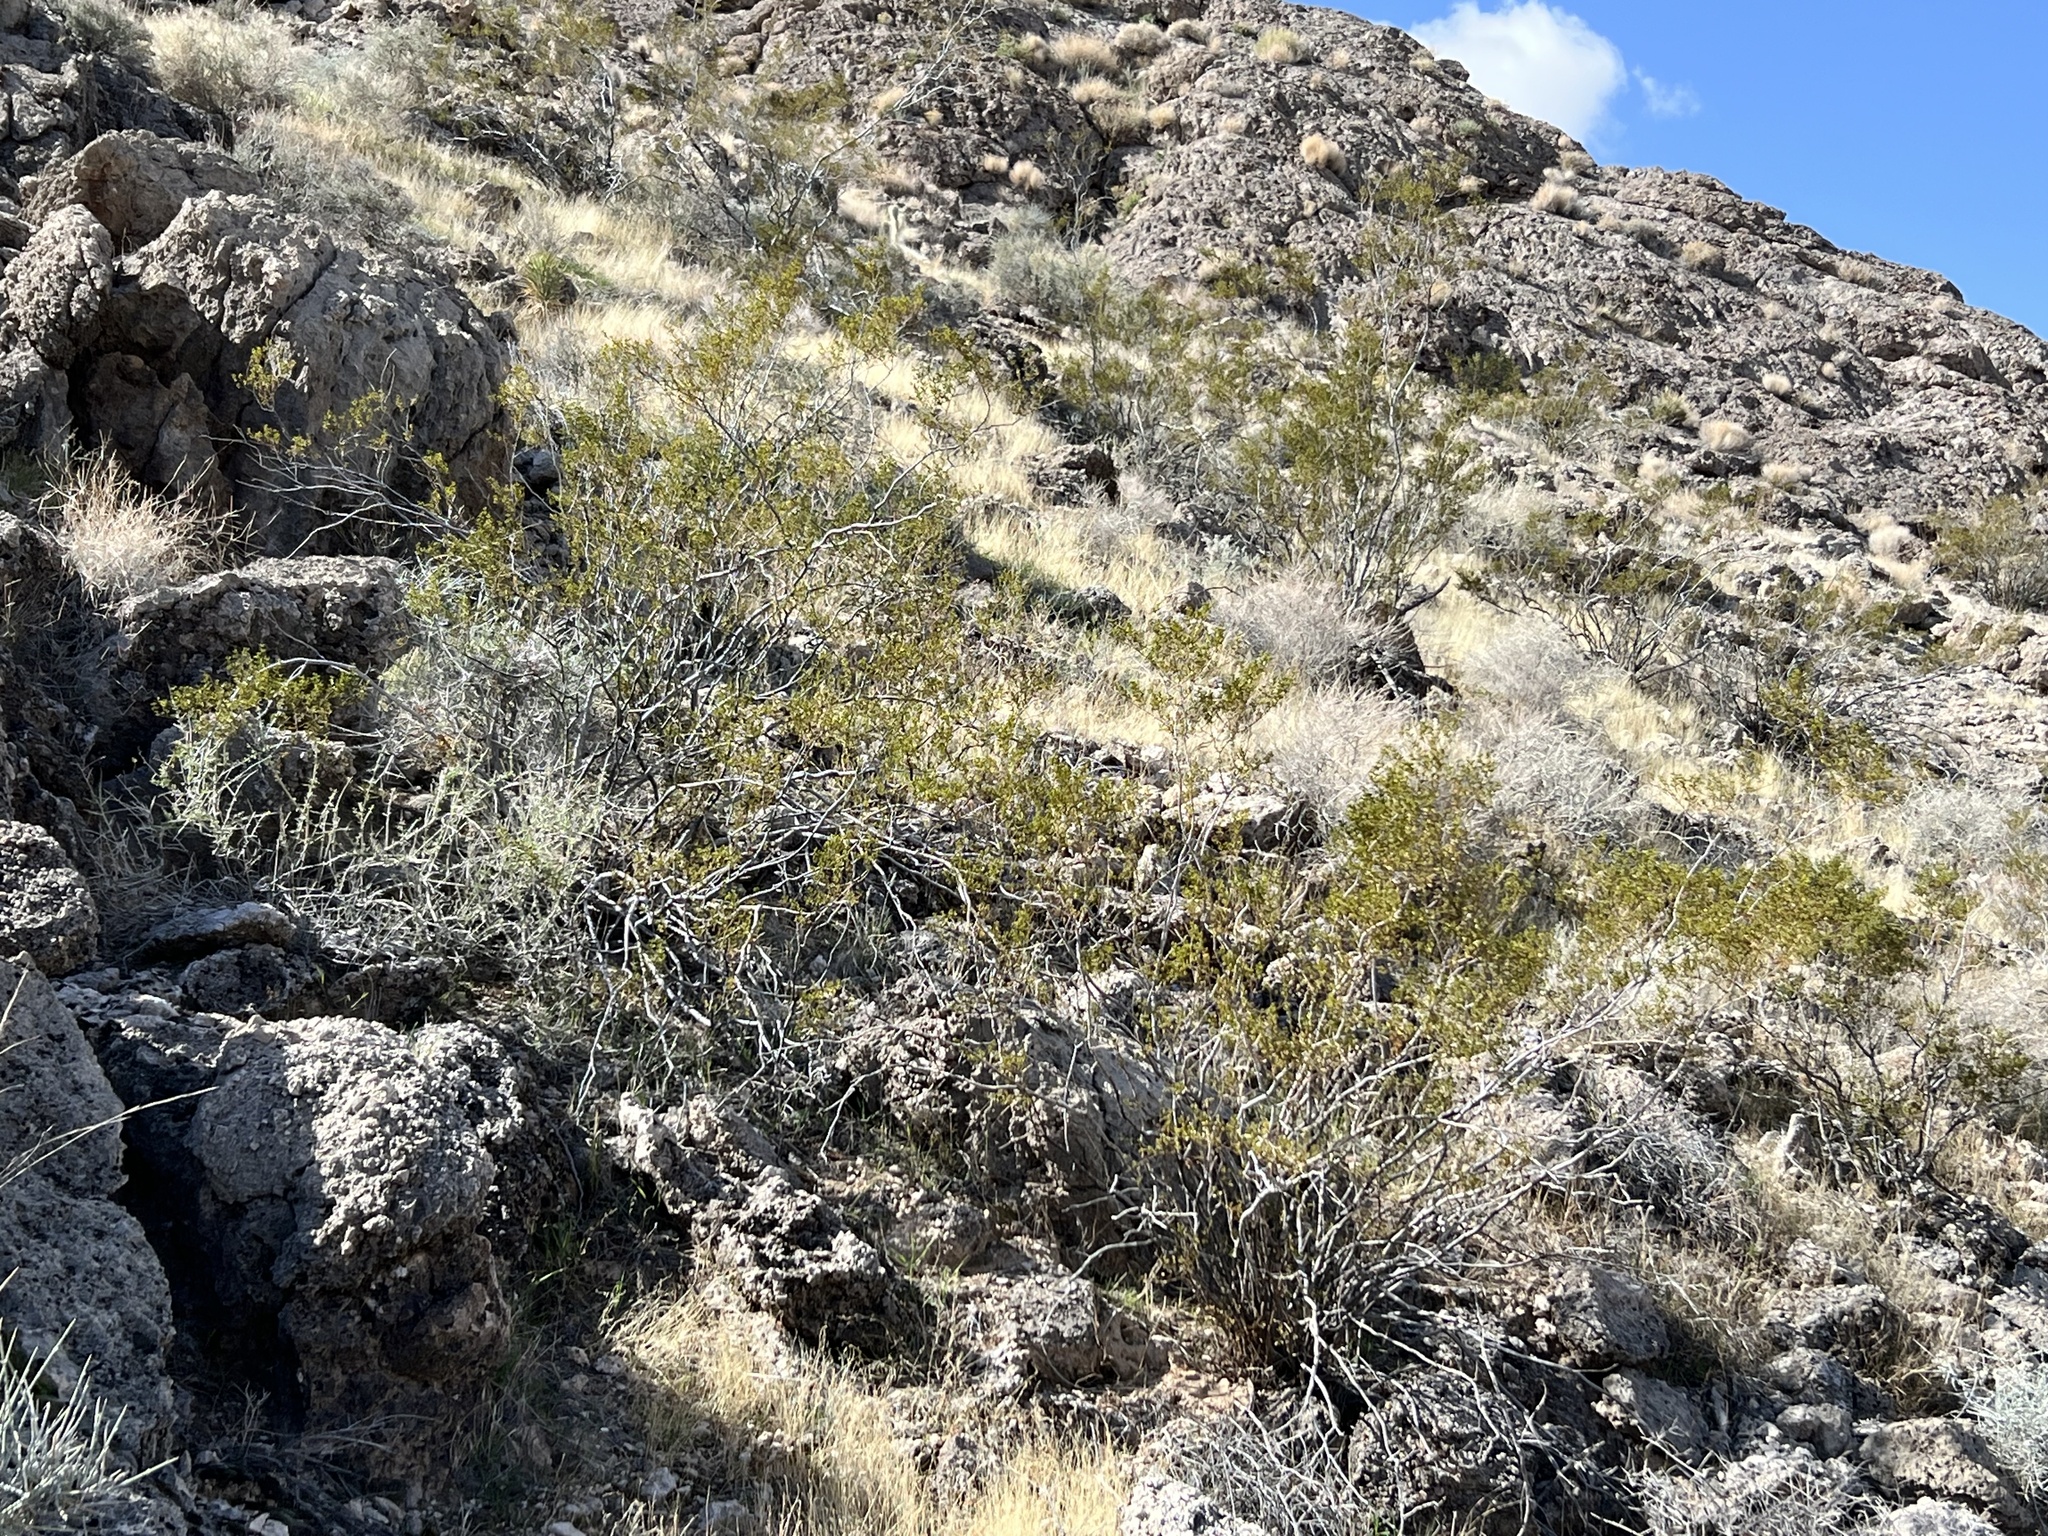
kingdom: Plantae
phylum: Tracheophyta
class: Magnoliopsida
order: Zygophyllales
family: Zygophyllaceae
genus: Larrea
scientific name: Larrea tridentata
